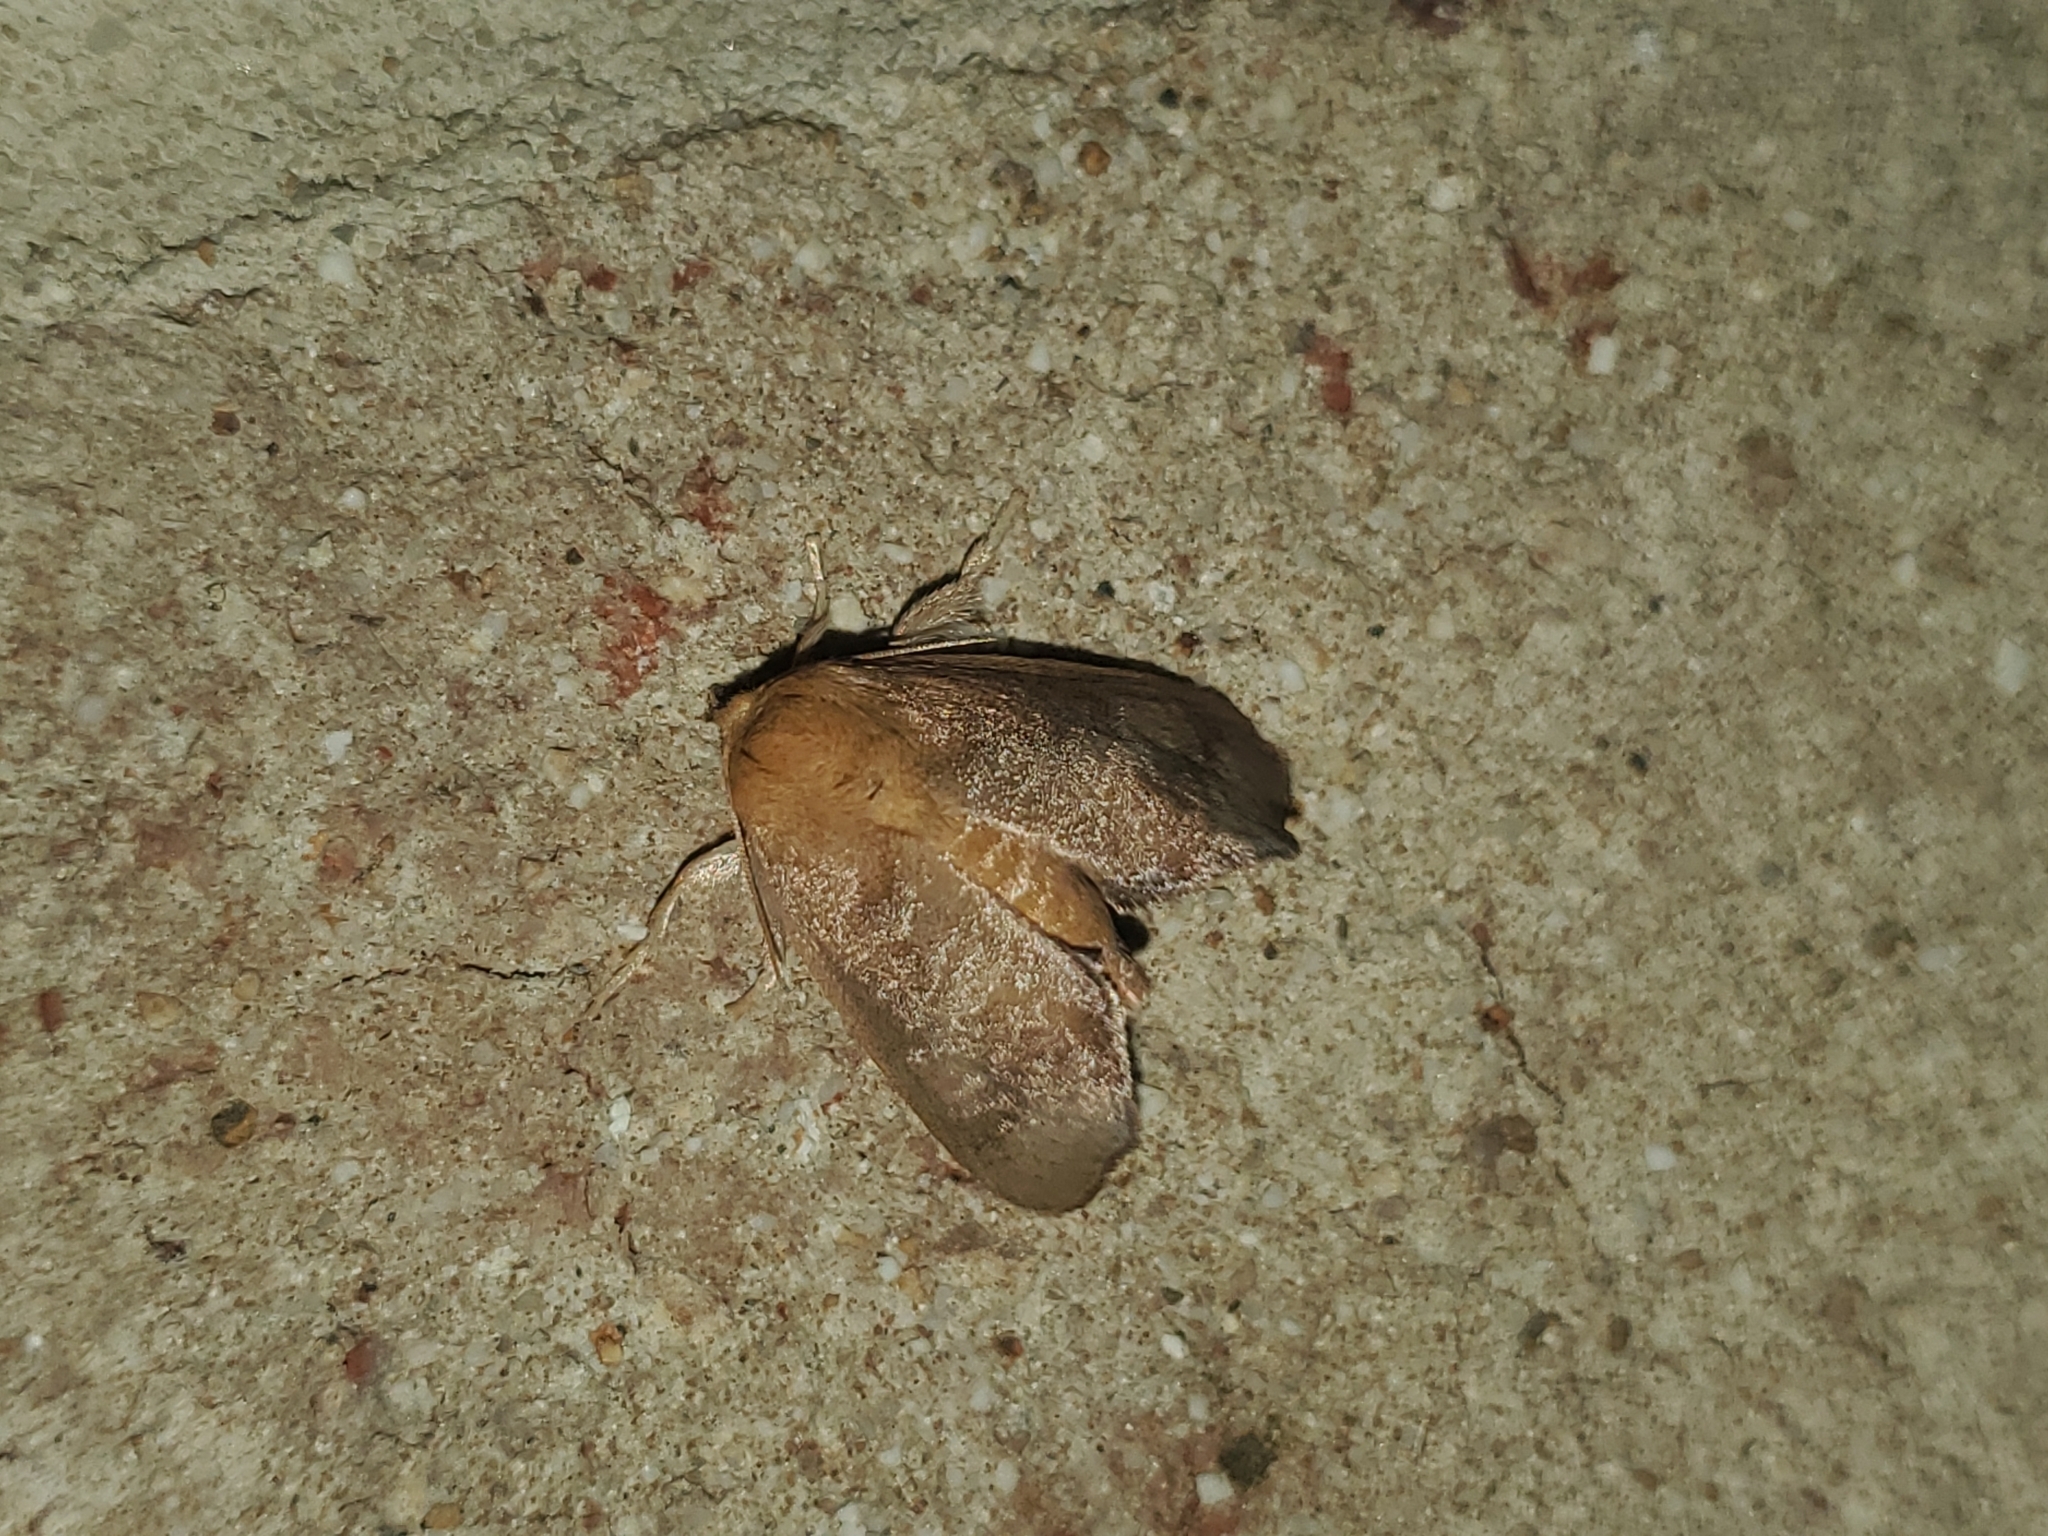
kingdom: Animalia
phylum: Arthropoda
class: Insecta
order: Lepidoptera
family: Limacodidae
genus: Isa
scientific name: Isa textula
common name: Crowned slug moth
